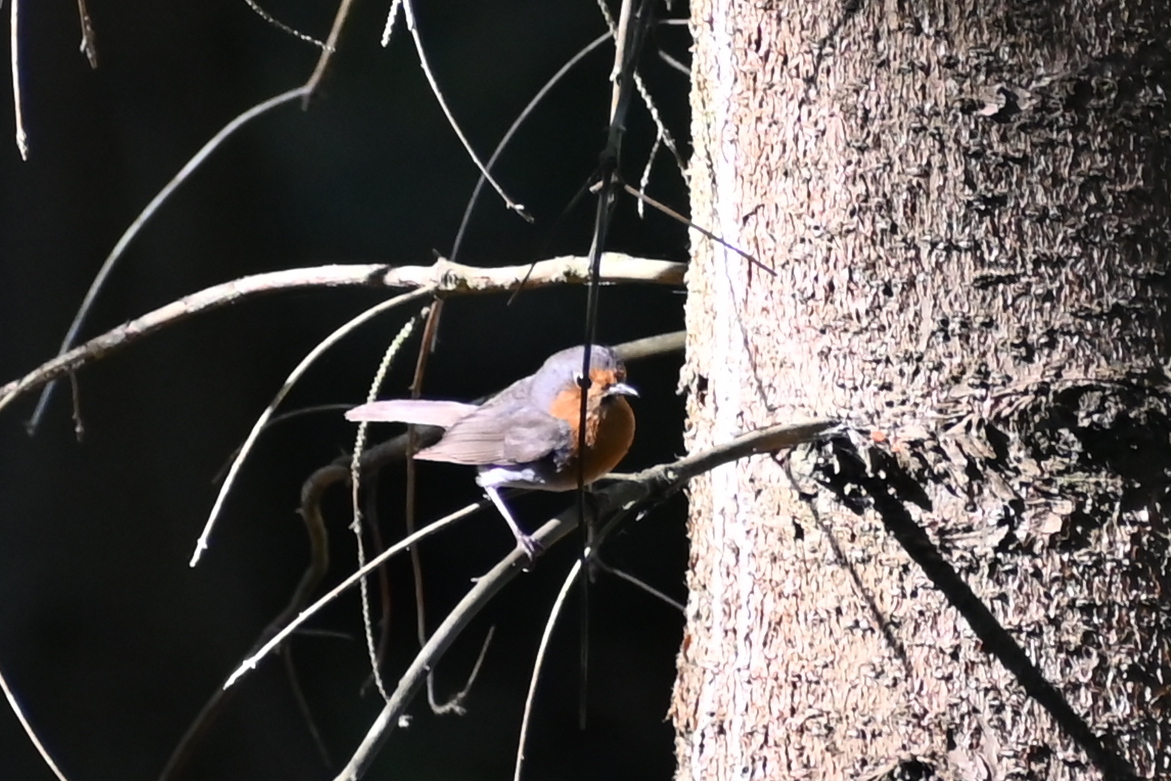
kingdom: Animalia
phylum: Chordata
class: Aves
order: Passeriformes
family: Muscicapidae
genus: Erithacus
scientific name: Erithacus rubecula
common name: European robin
